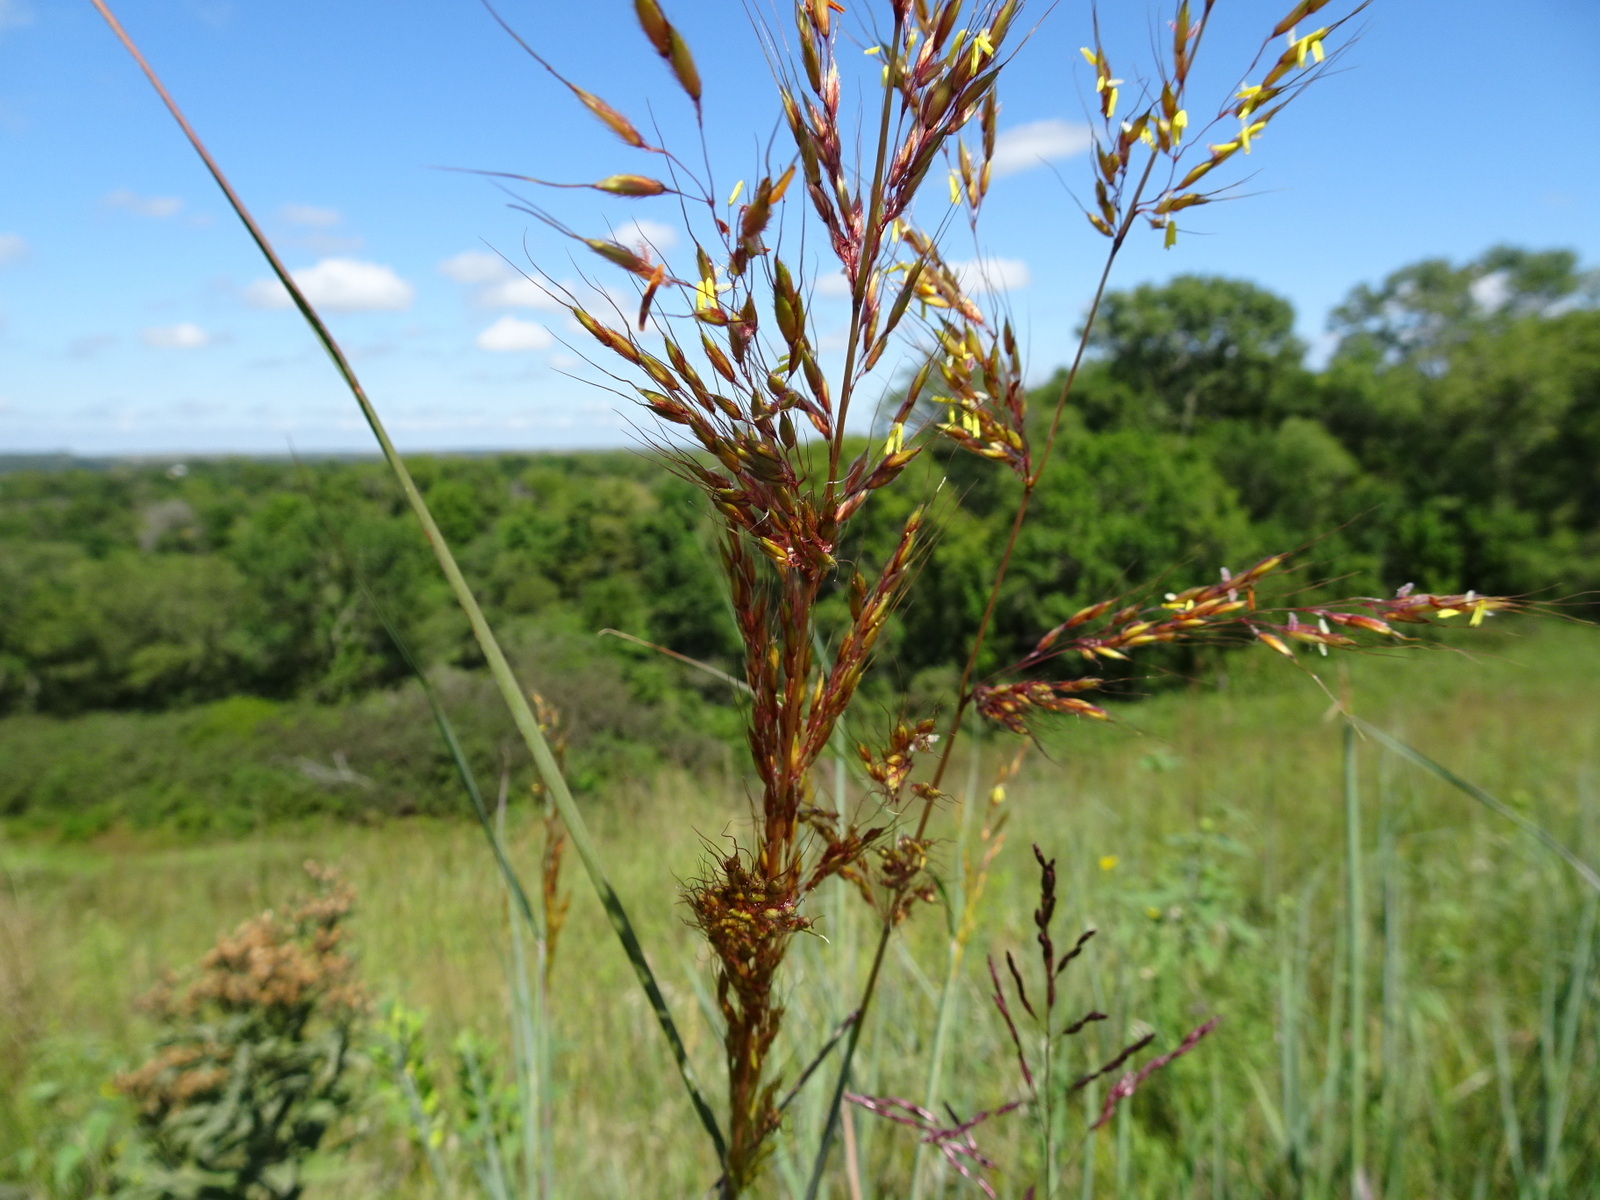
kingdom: Plantae
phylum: Tracheophyta
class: Liliopsida
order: Poales
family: Poaceae
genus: Sorghastrum
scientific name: Sorghastrum nutans
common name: Indian grass
